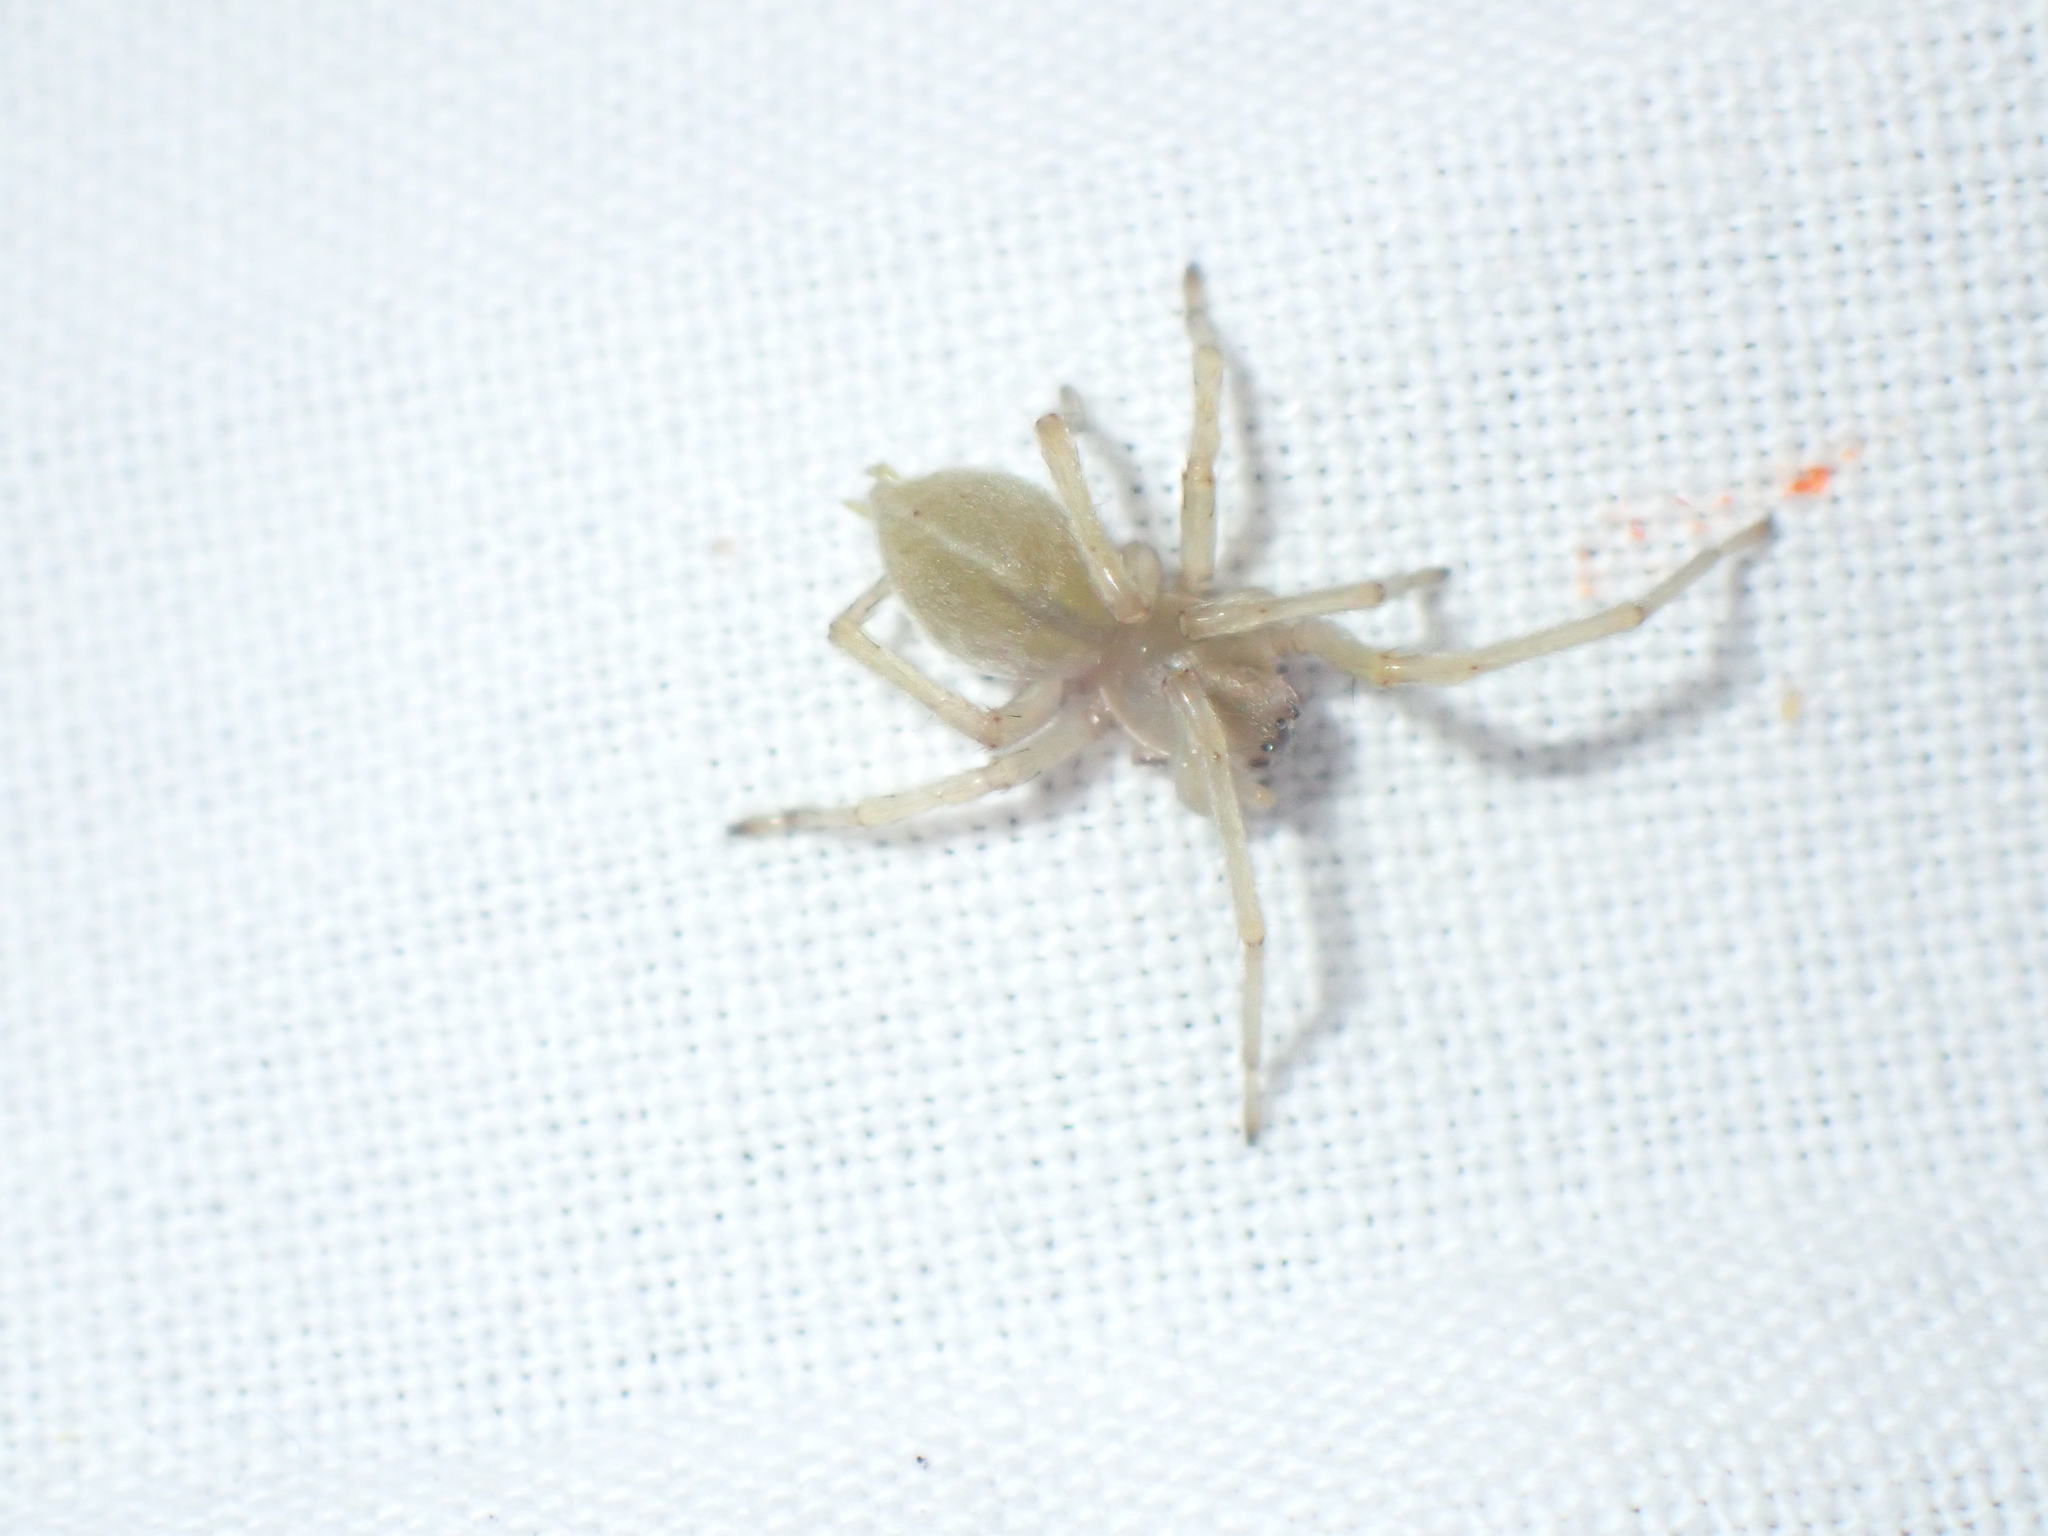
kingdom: Animalia
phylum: Arthropoda
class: Arachnida
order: Araneae
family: Cheiracanthiidae
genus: Cheiracanthium
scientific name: Cheiracanthium
